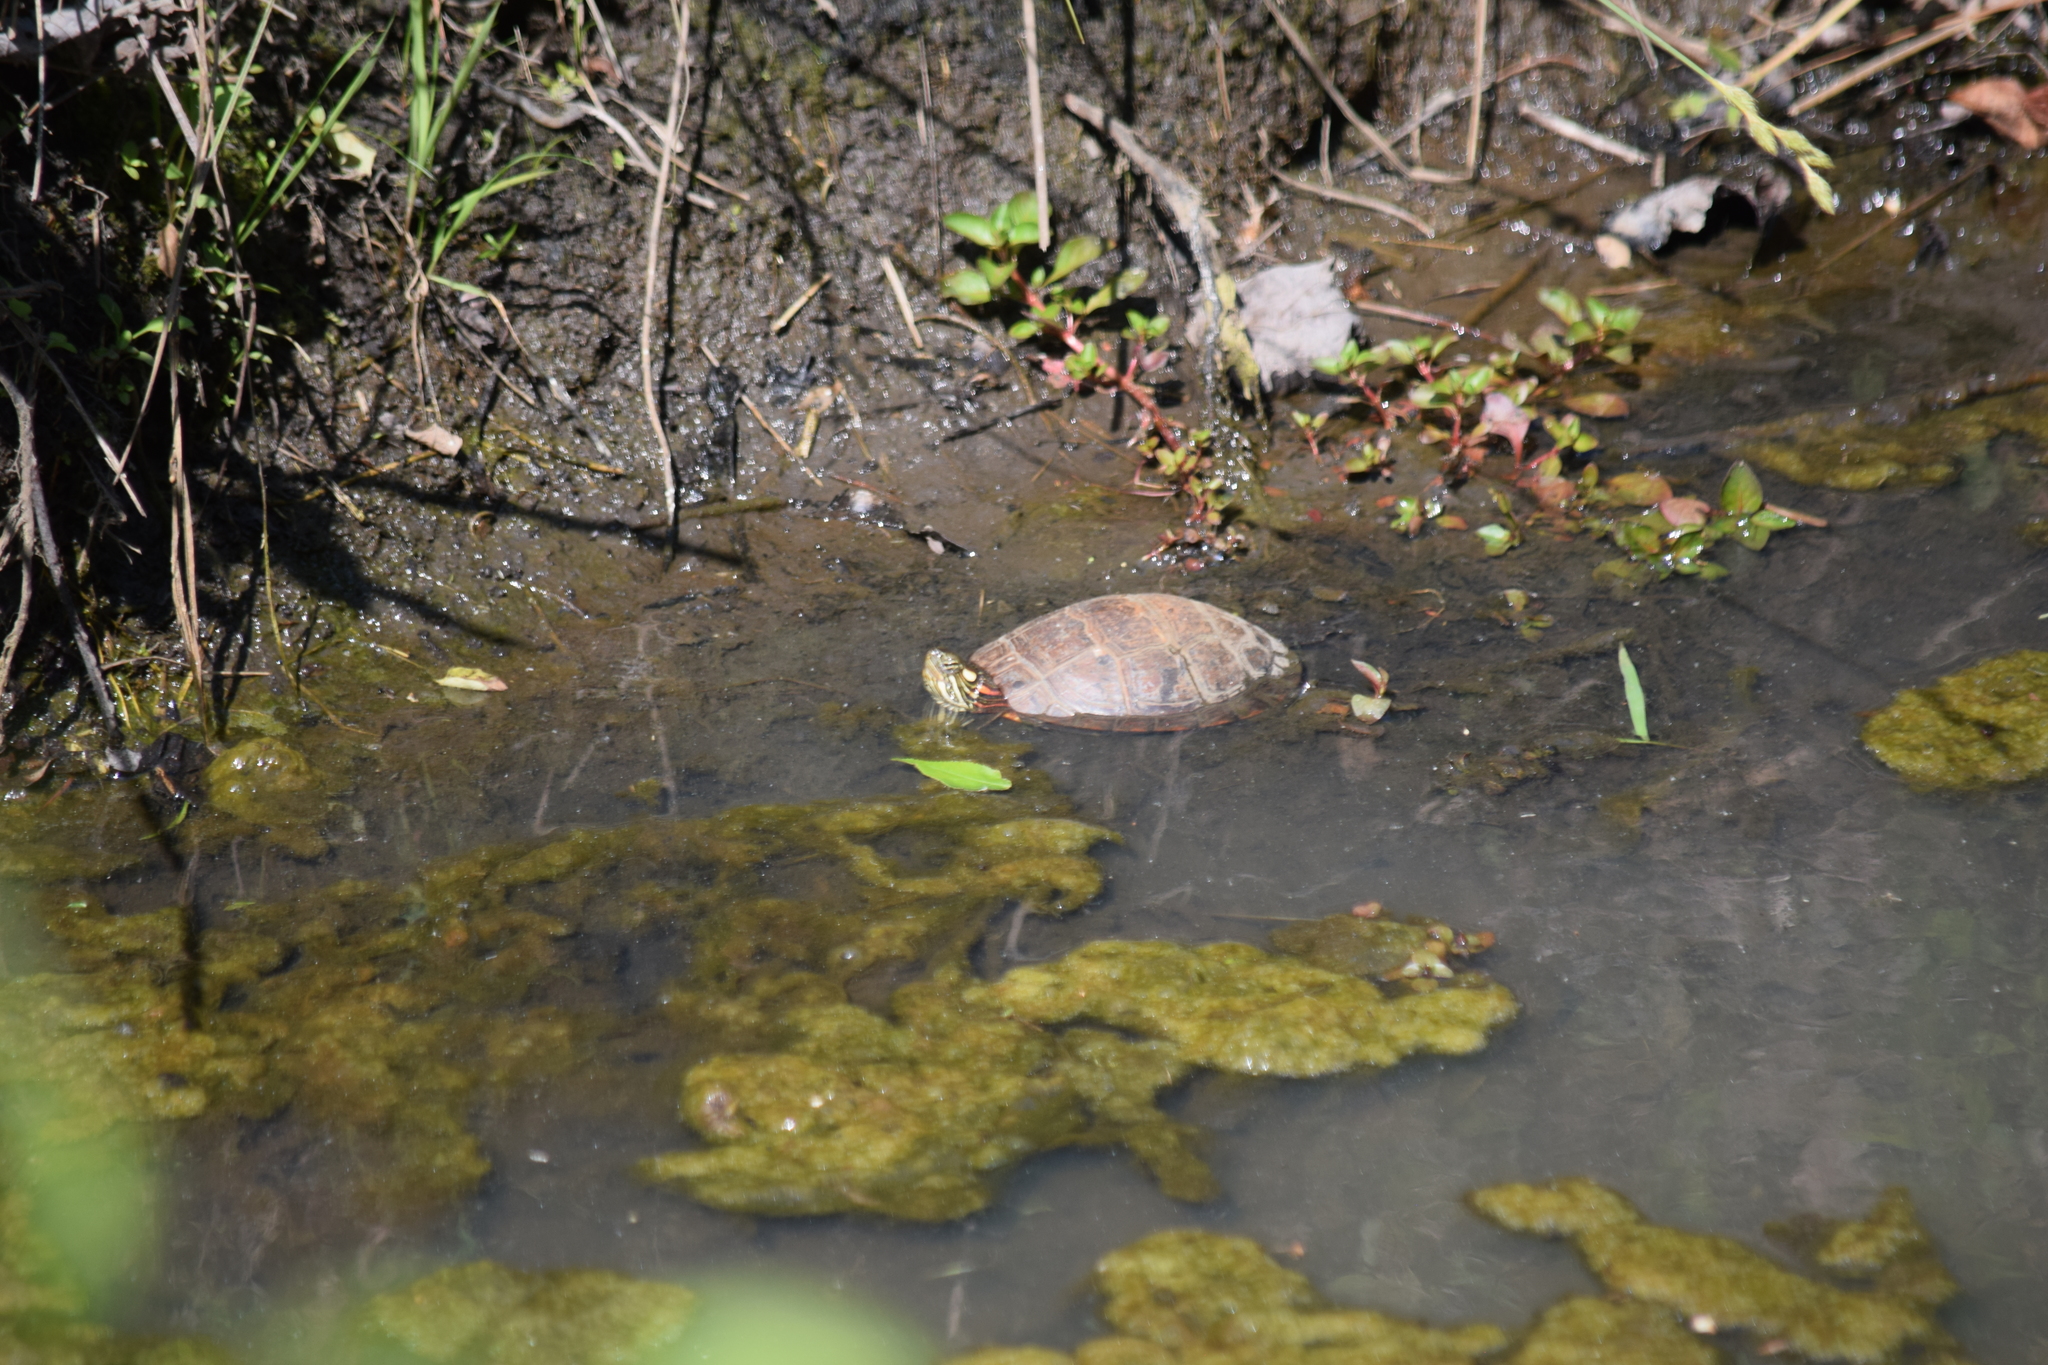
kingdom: Animalia
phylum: Chordata
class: Testudines
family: Emydidae
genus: Chrysemys
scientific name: Chrysemys picta
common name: Painted turtle
